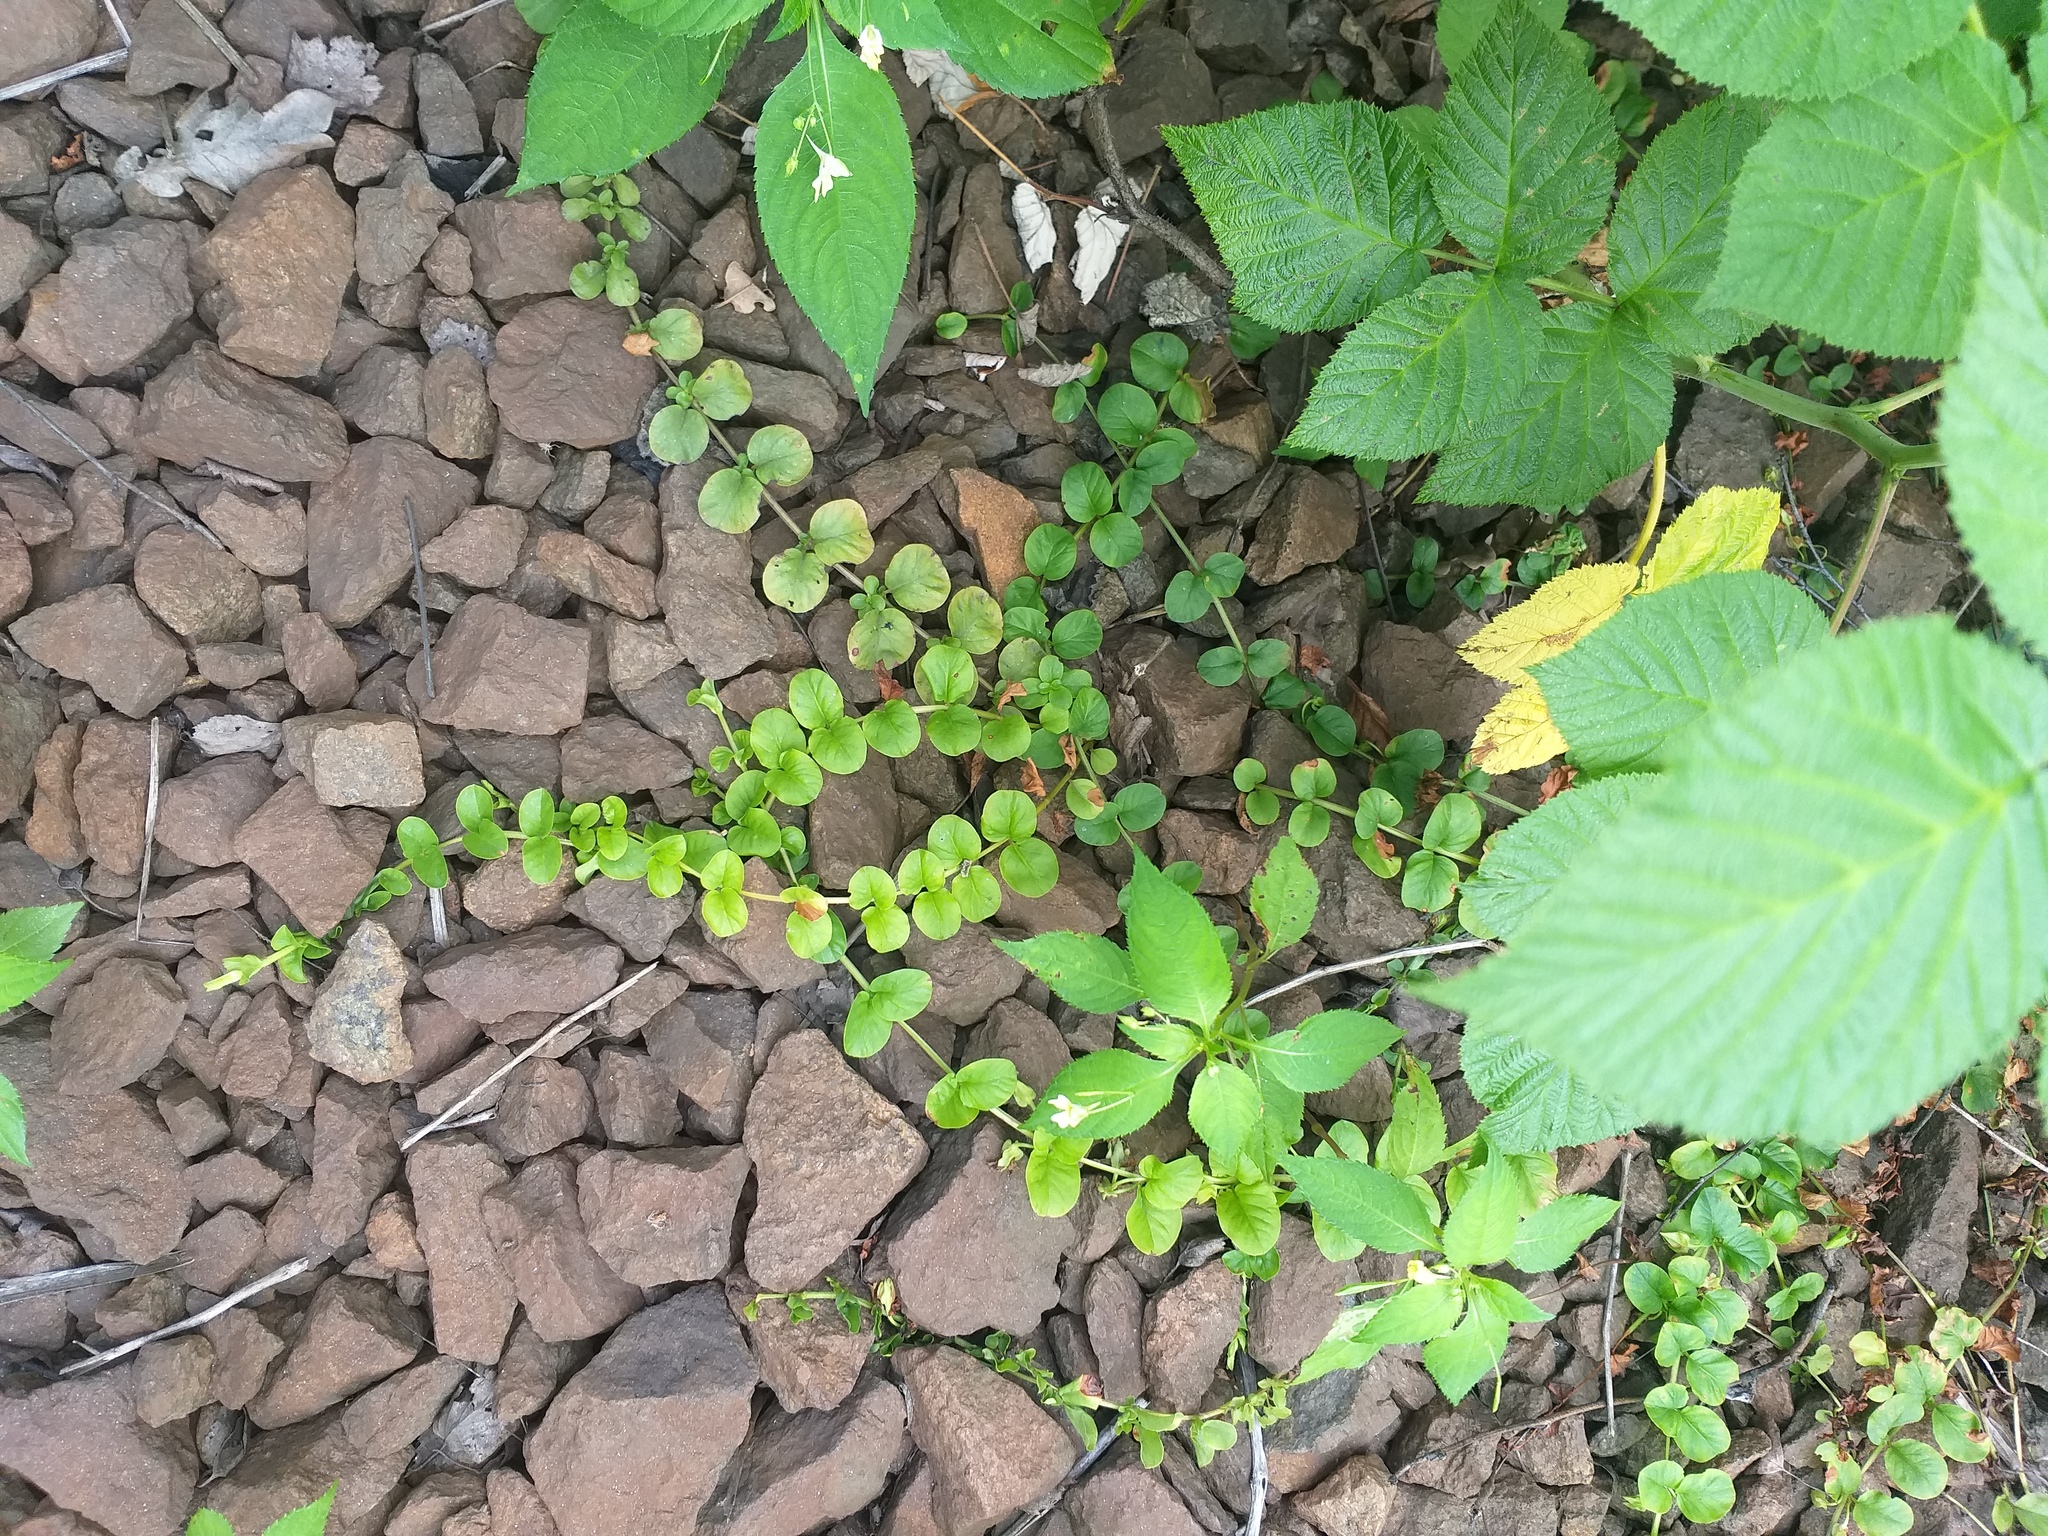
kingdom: Plantae
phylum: Tracheophyta
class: Magnoliopsida
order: Ericales
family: Primulaceae
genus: Lysimachia
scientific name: Lysimachia nummularia
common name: Moneywort
